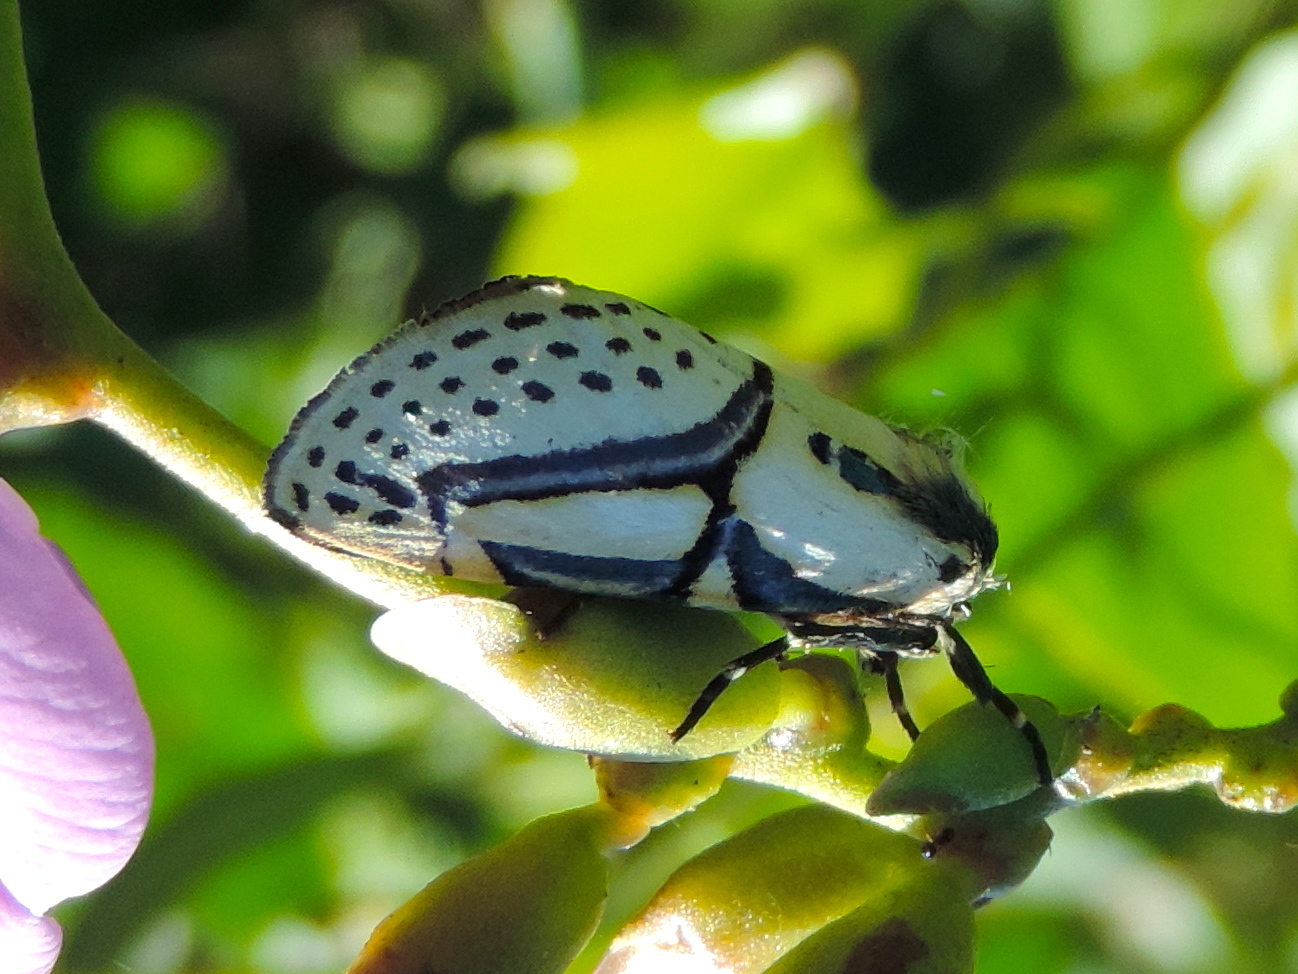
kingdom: Animalia
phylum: Arthropoda
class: Insecta
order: Lepidoptera
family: Erebidae
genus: Diphthera
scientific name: Diphthera festiva
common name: Hieroglyphic moth
